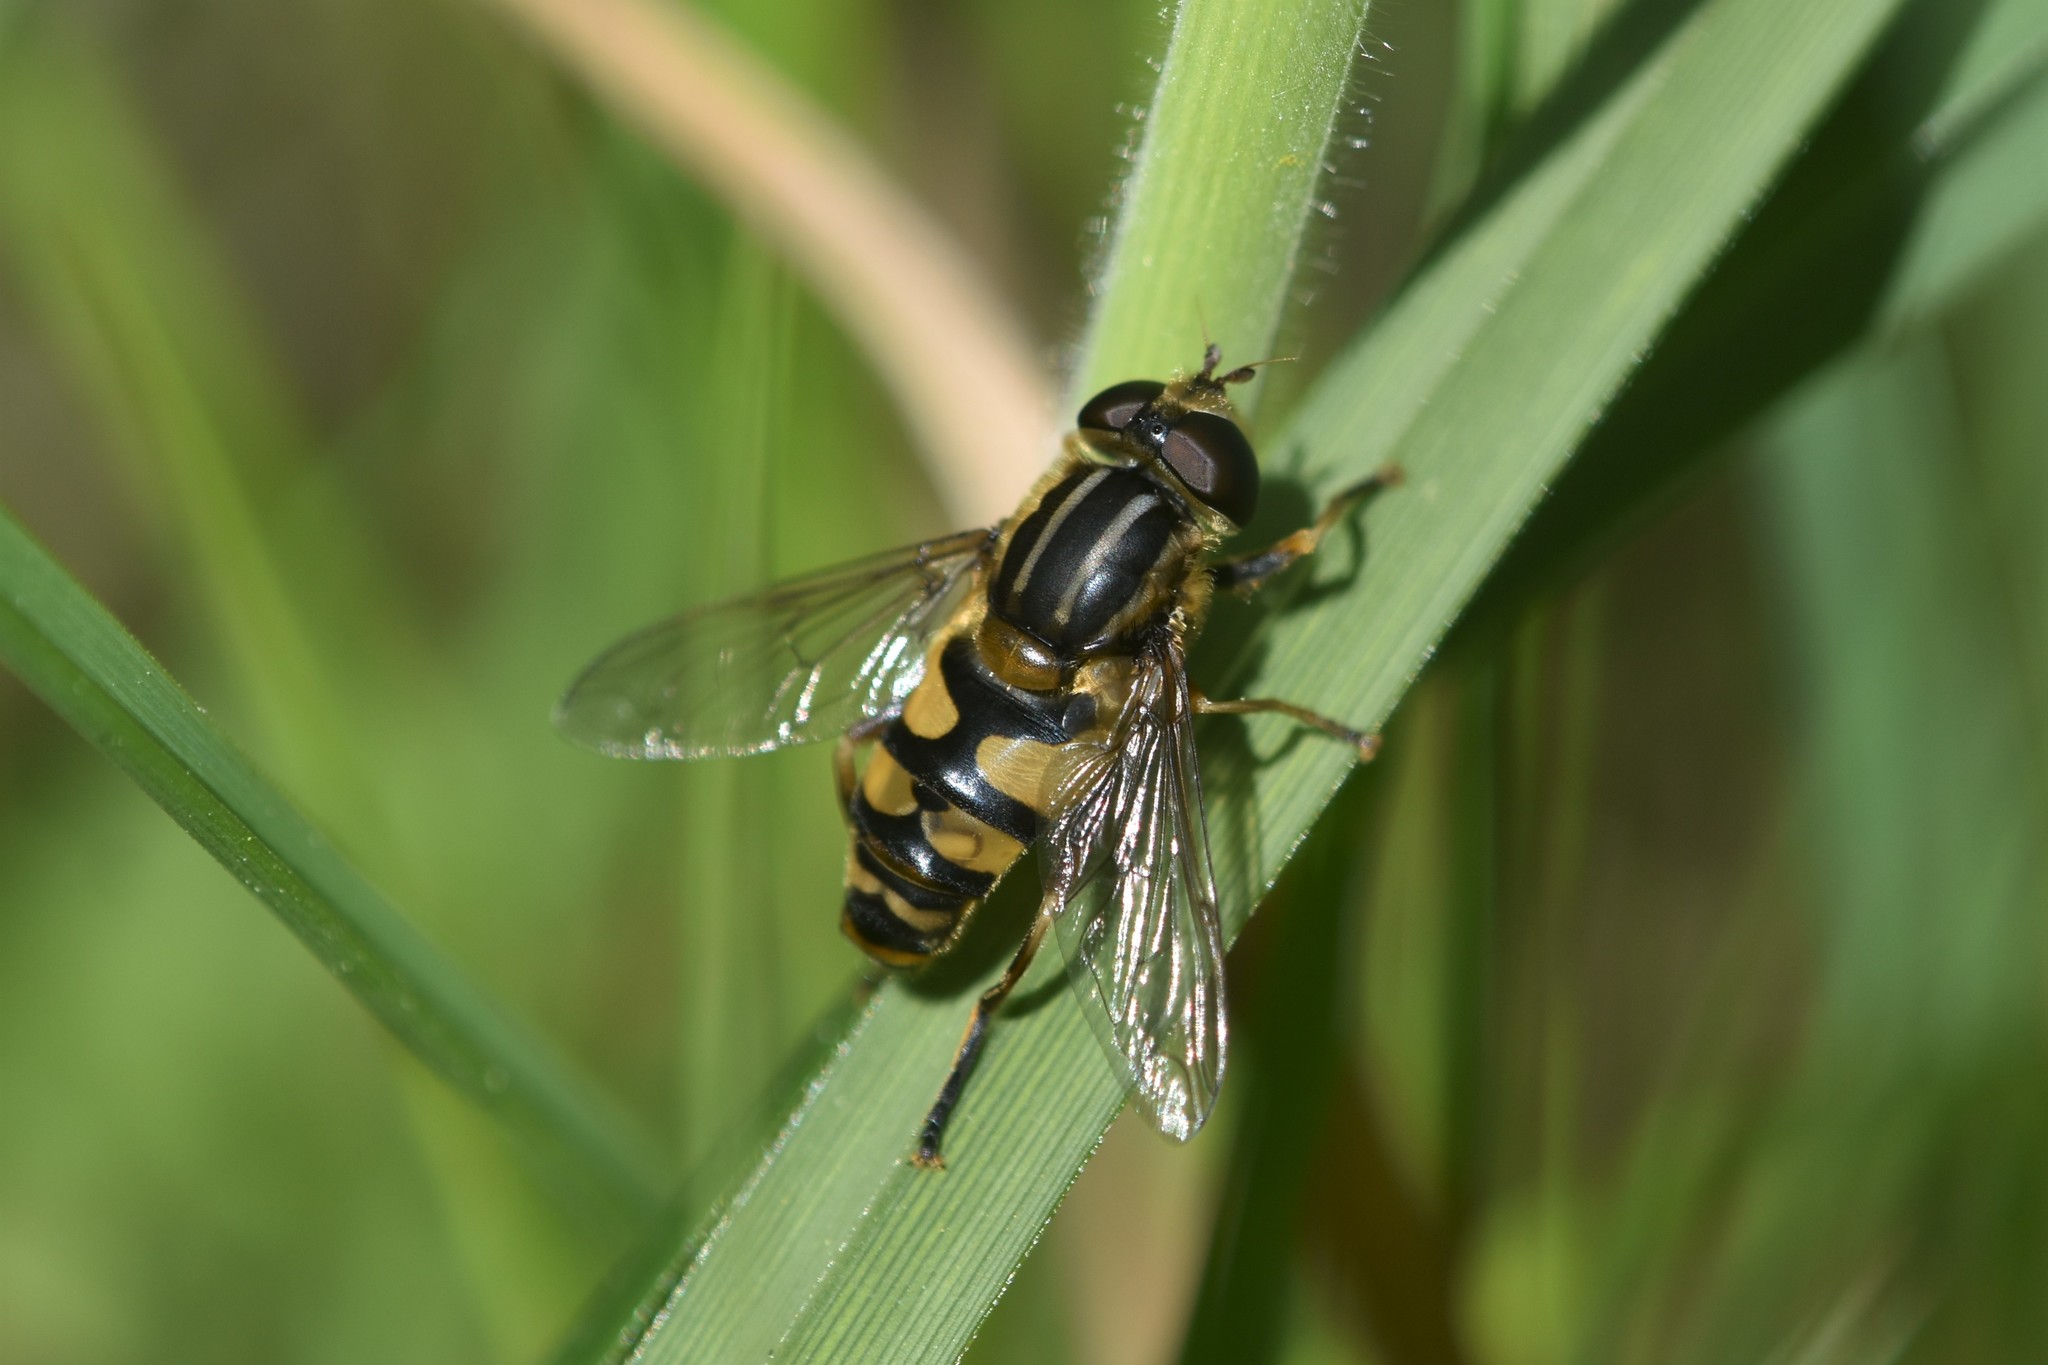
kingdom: Animalia
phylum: Arthropoda
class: Insecta
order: Diptera
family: Syrphidae
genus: Helophilus
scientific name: Helophilus fasciatus
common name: Narrow-headed marsh fly
